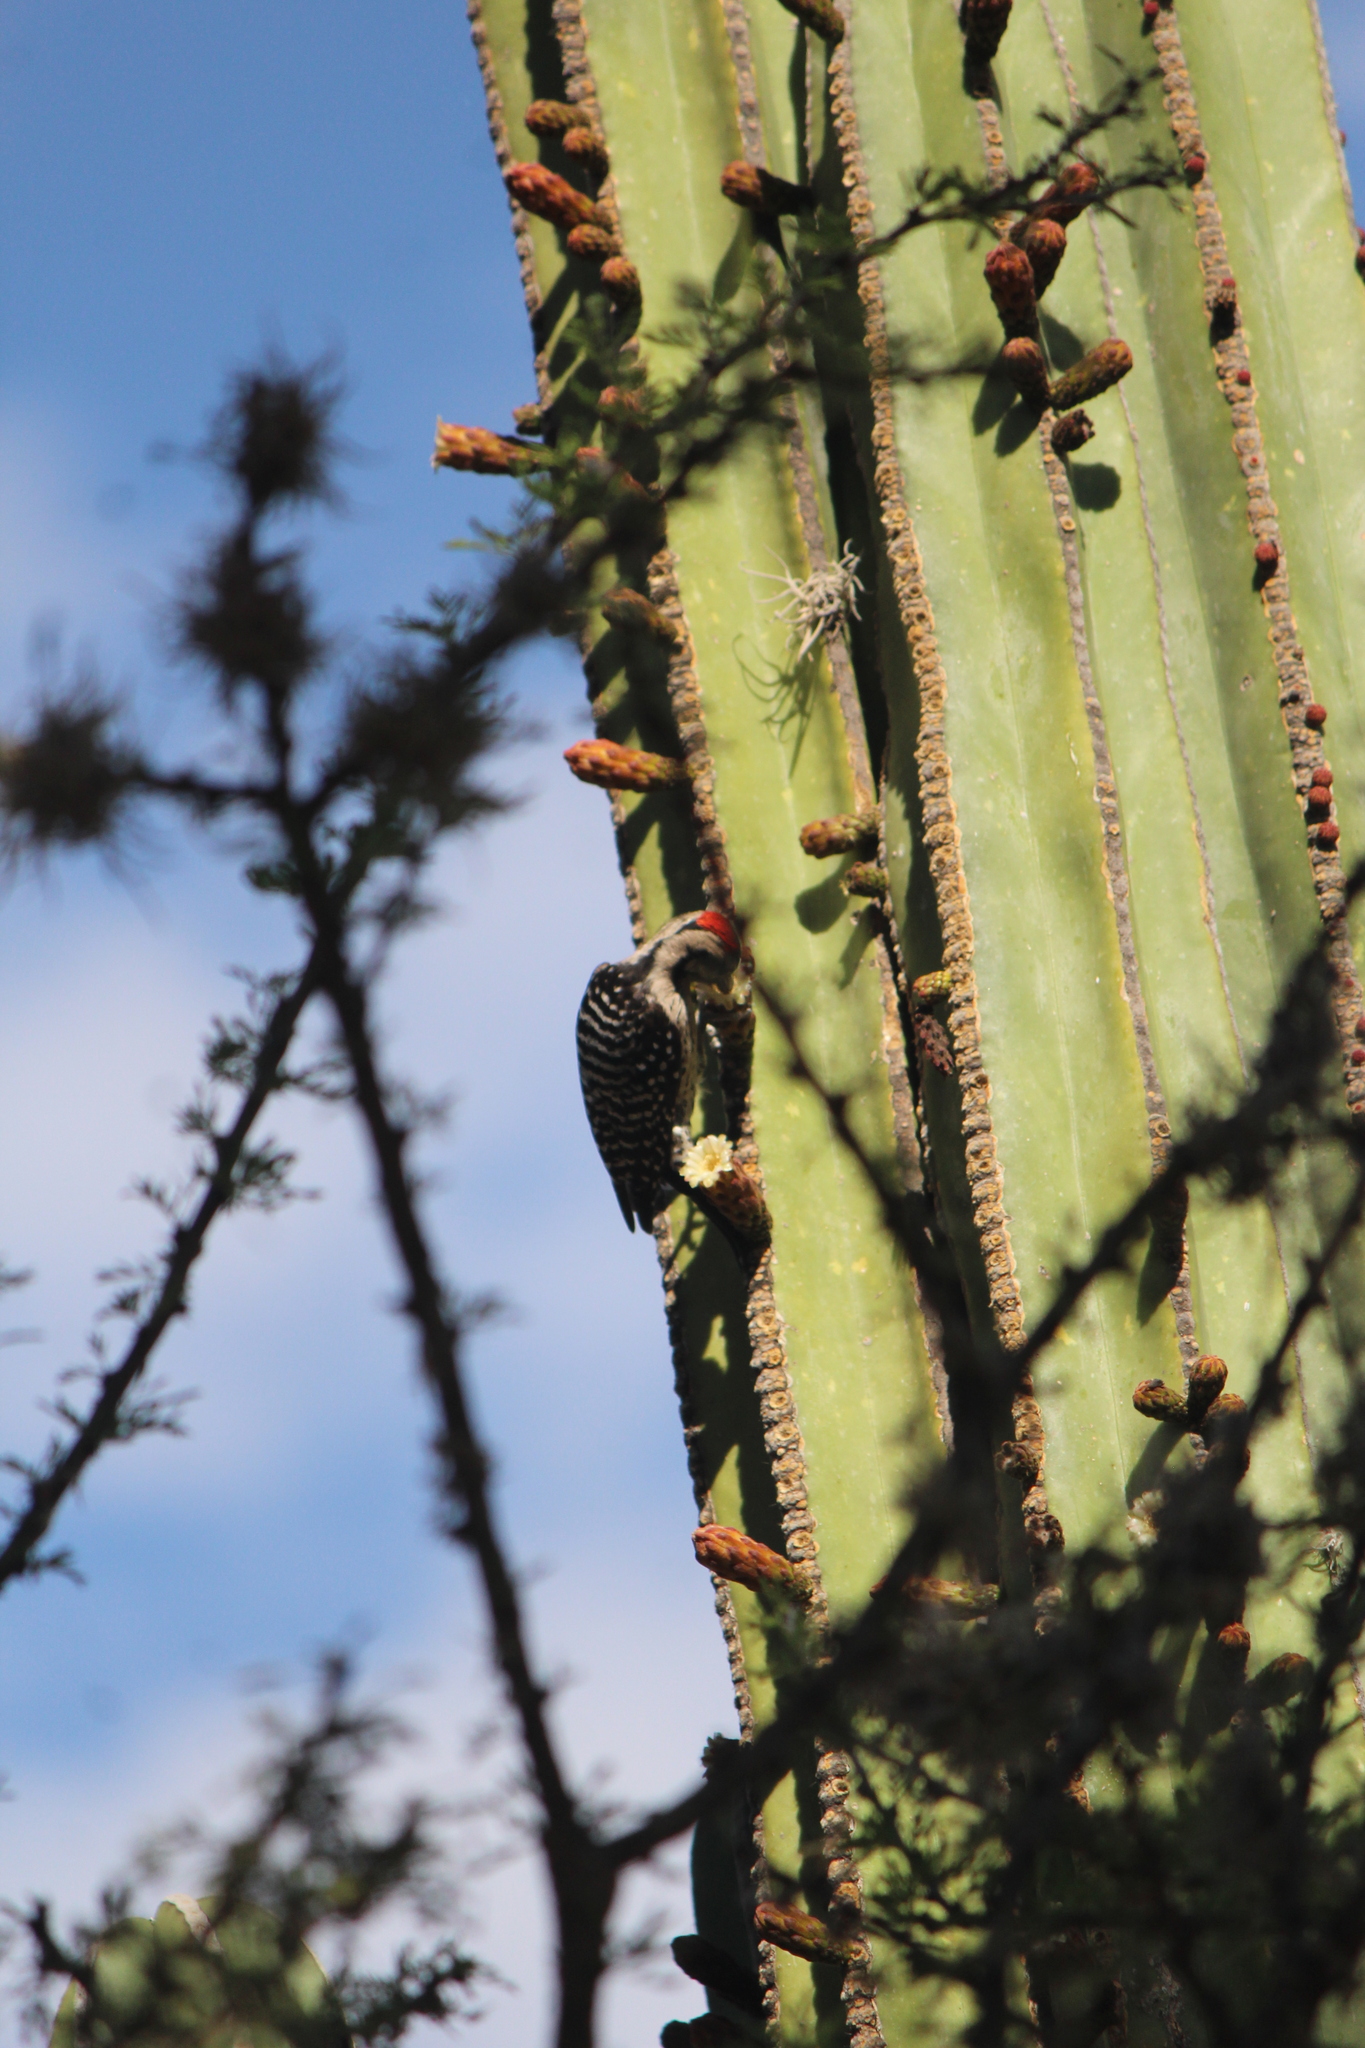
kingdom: Animalia
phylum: Chordata
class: Aves
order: Piciformes
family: Picidae
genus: Dryobates
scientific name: Dryobates scalaris
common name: Ladder-backed woodpecker
